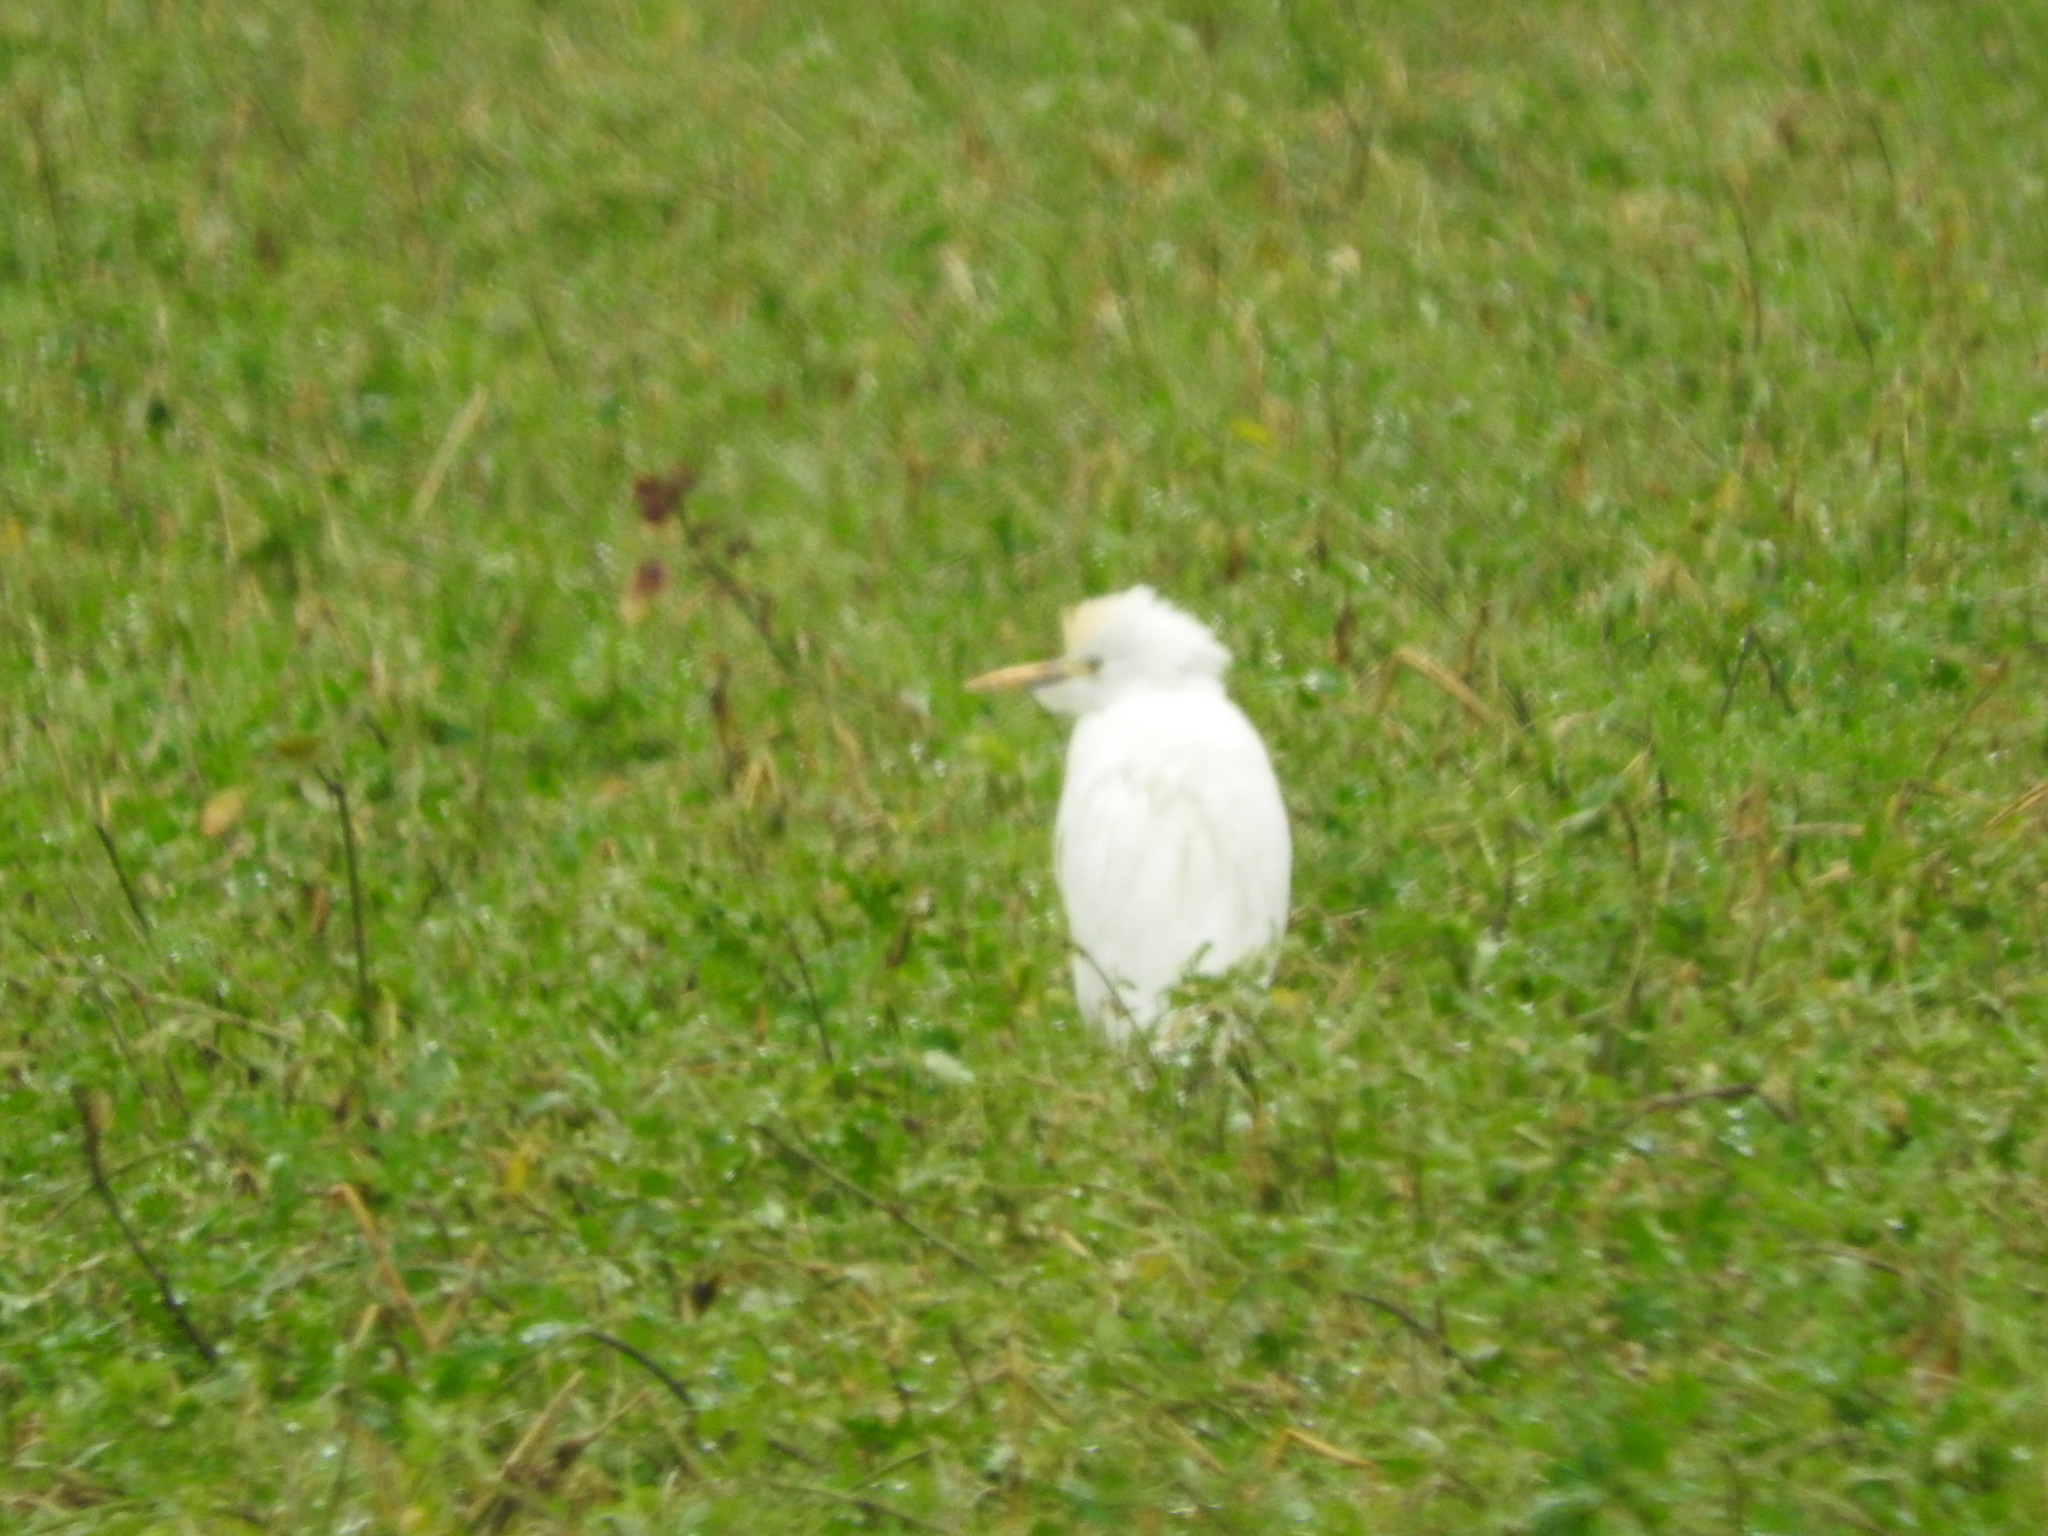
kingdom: Animalia
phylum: Chordata
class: Aves
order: Pelecaniformes
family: Ardeidae
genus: Bubulcus
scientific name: Bubulcus ibis
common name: Cattle egret
